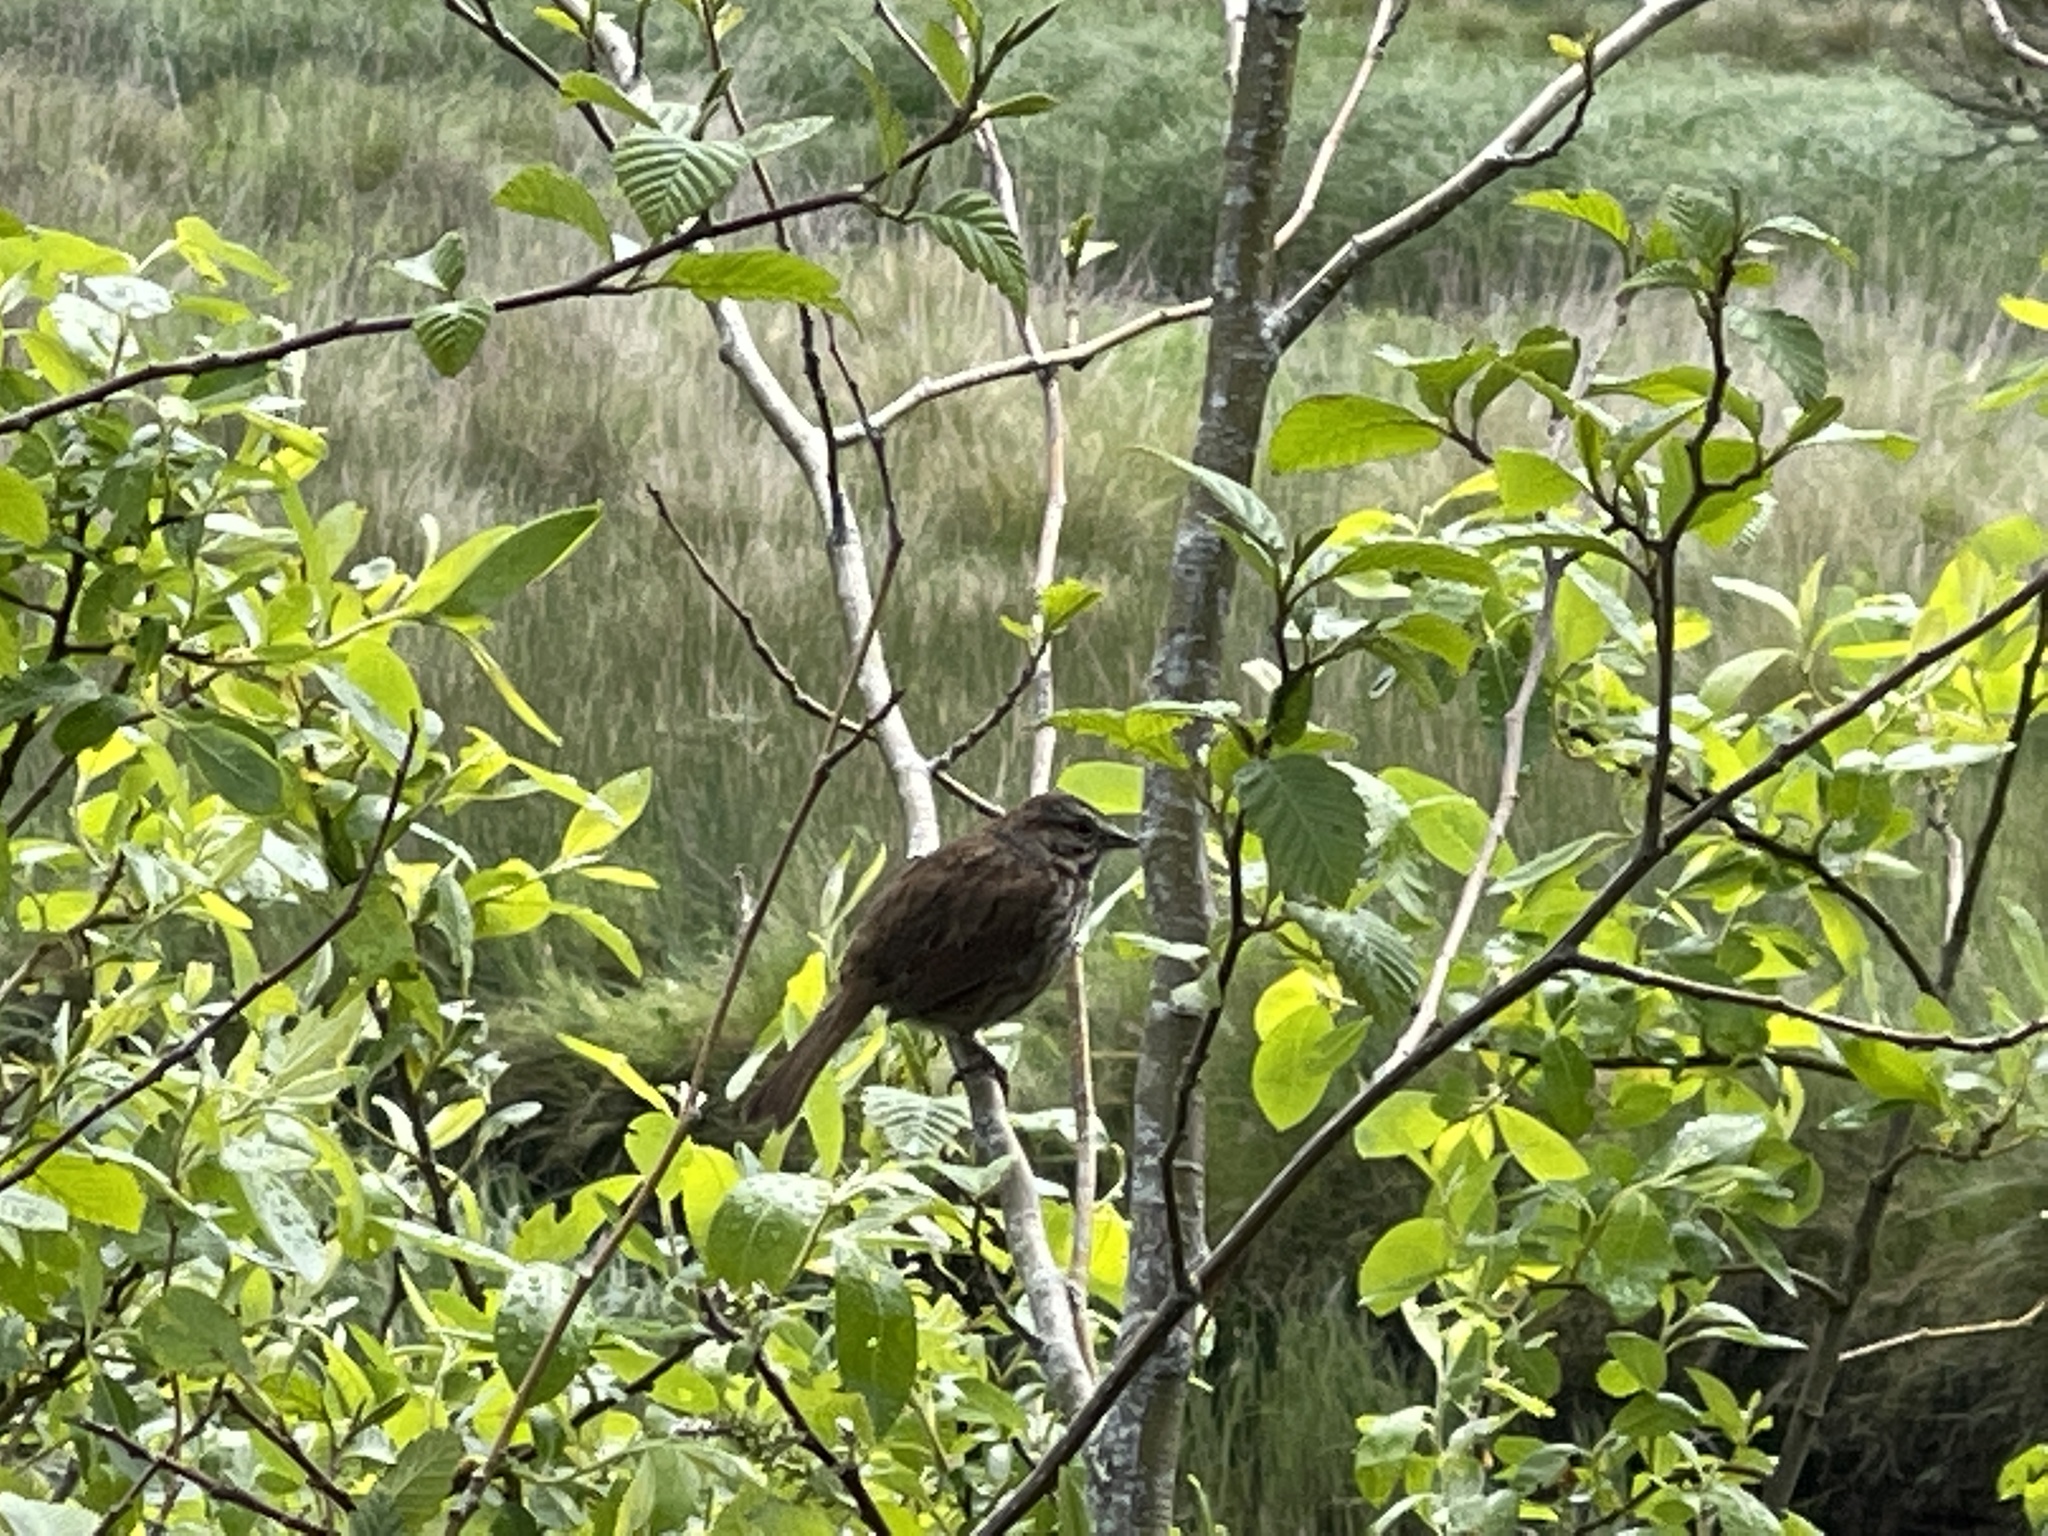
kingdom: Animalia
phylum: Chordata
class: Aves
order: Passeriformes
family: Passerellidae
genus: Melospiza
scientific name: Melospiza melodia
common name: Song sparrow
